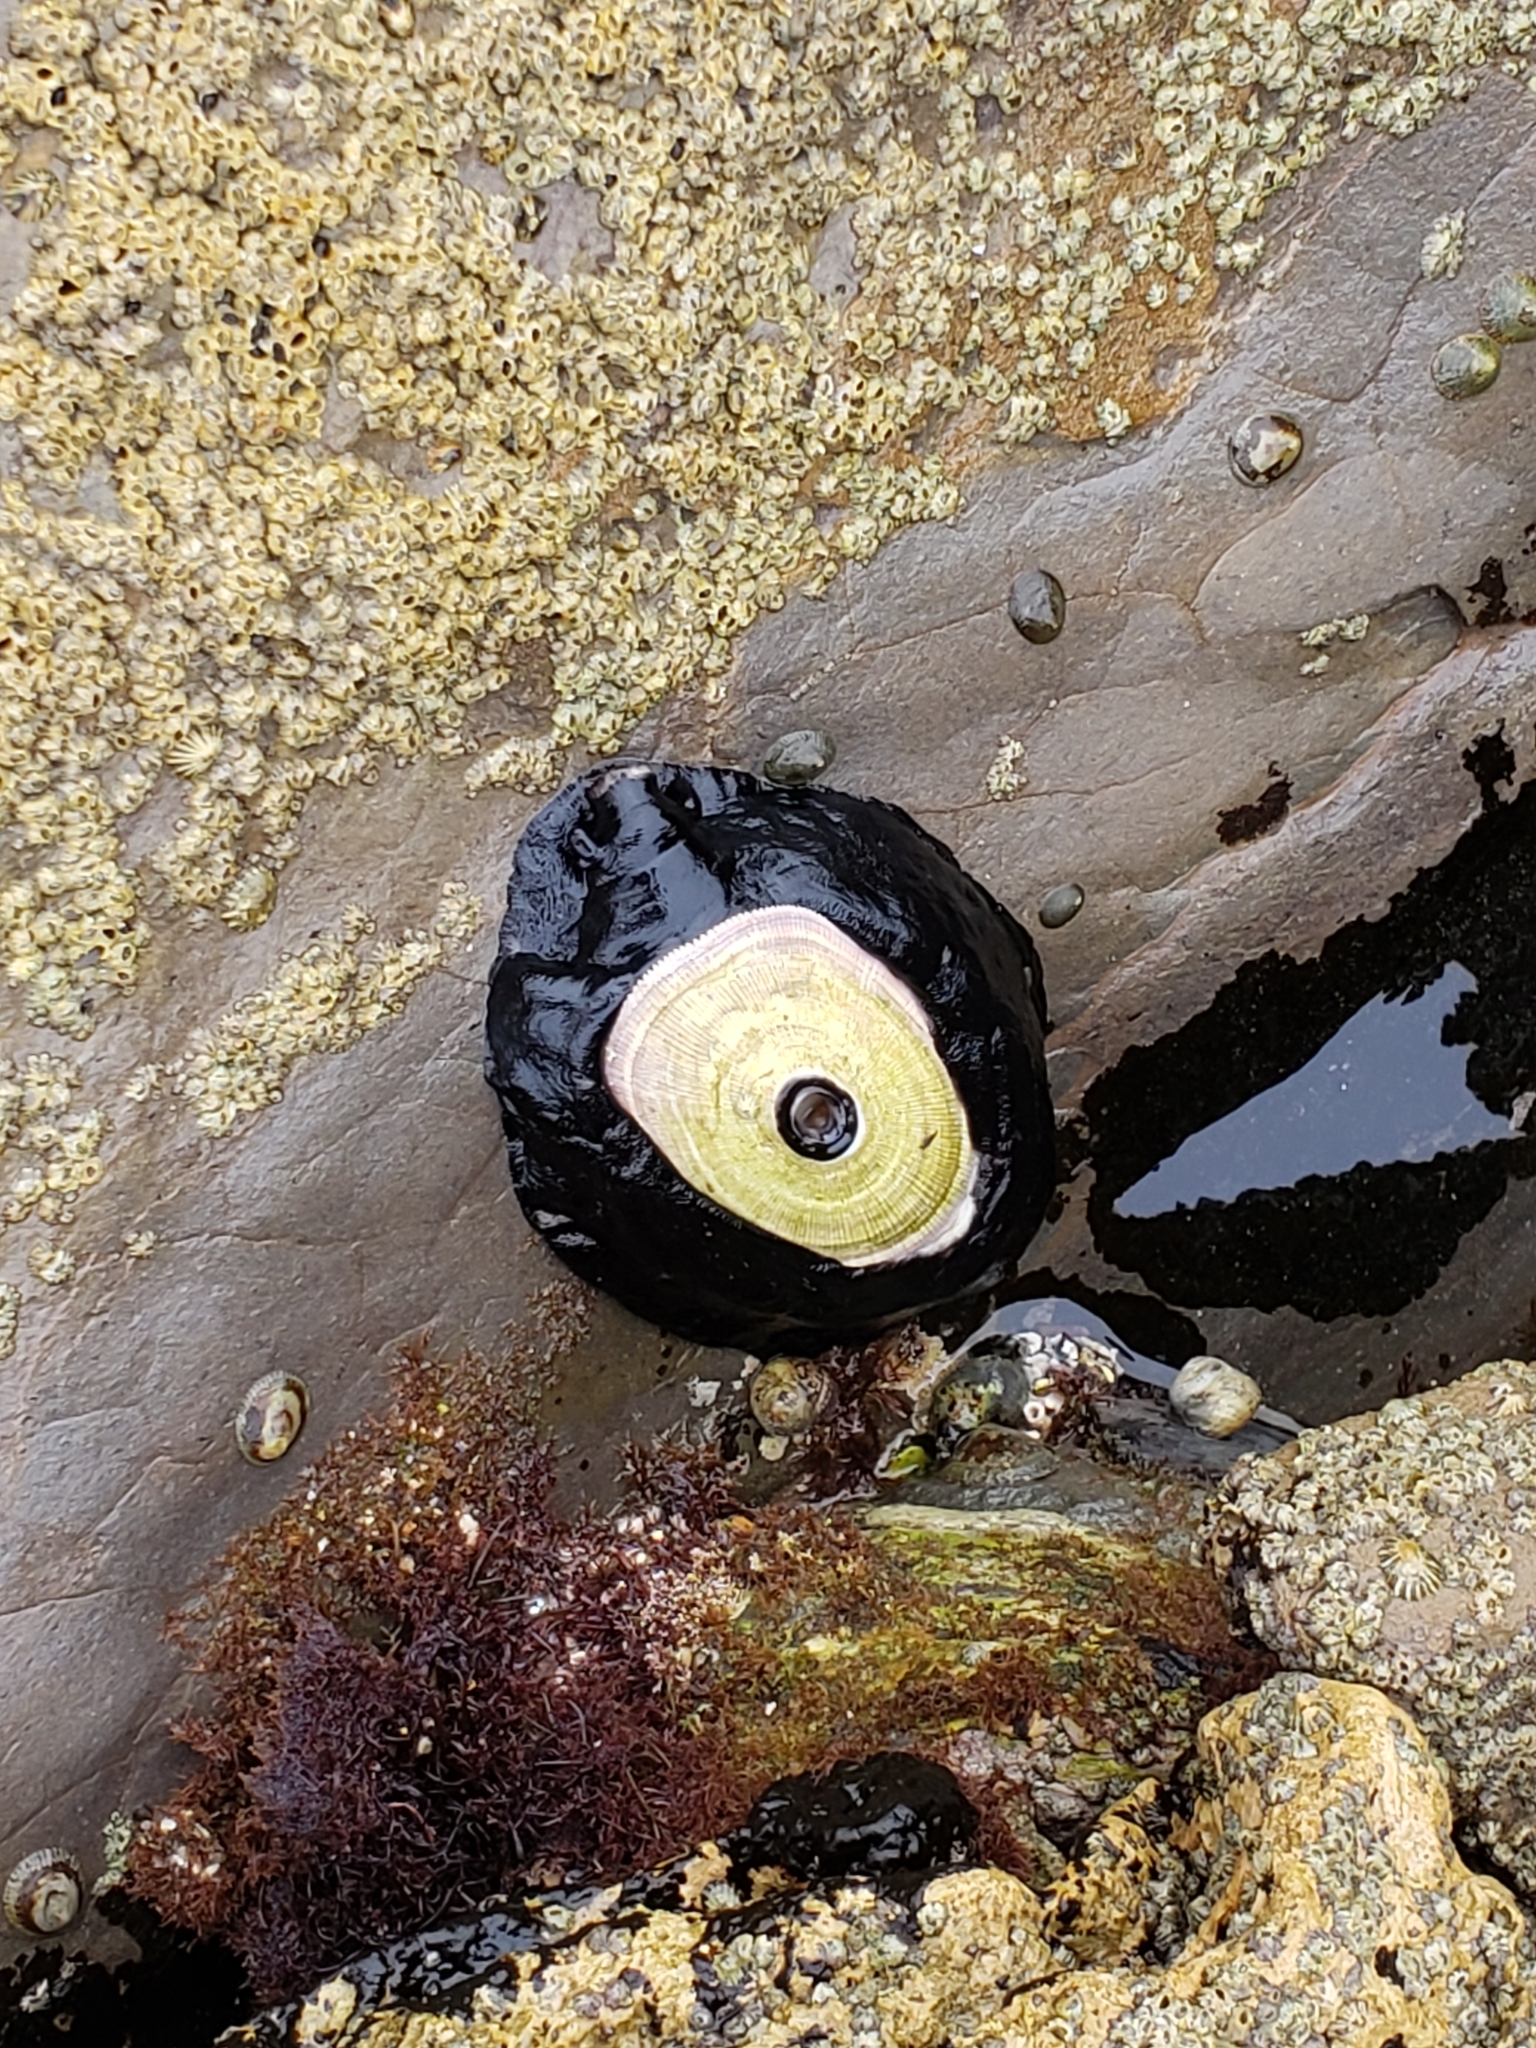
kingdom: Animalia
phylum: Mollusca
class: Gastropoda
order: Lepetellida
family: Fissurellidae
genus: Megathura
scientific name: Megathura crenulata
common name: Giant keyhole limpet
